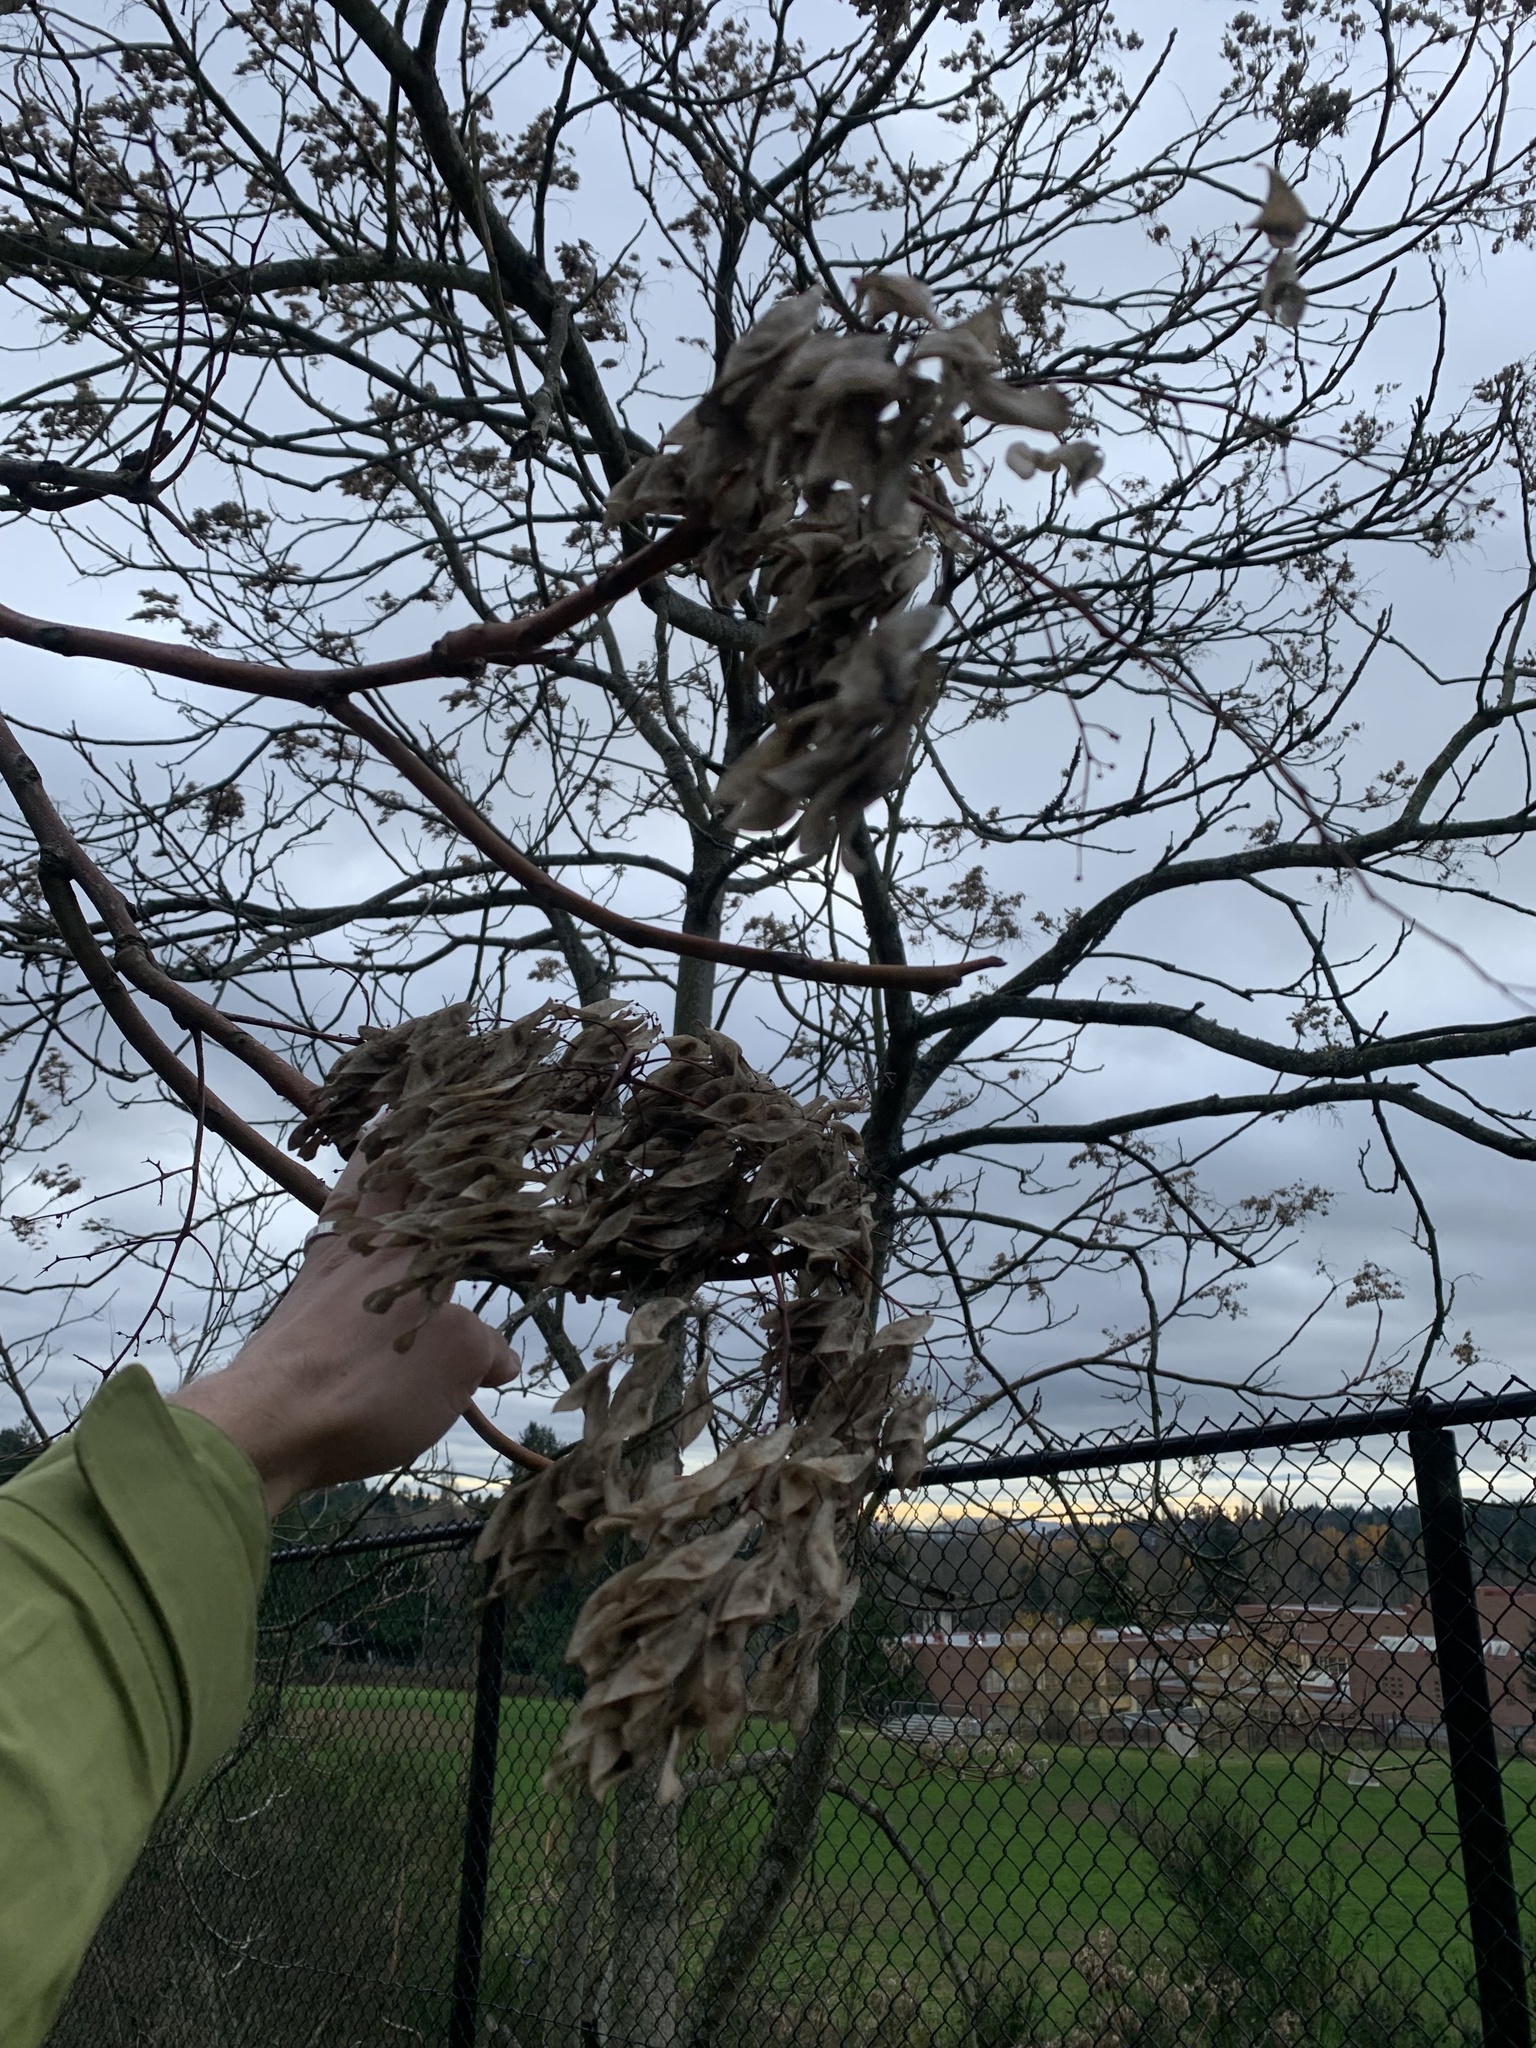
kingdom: Plantae
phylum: Tracheophyta
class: Magnoliopsida
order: Sapindales
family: Simaroubaceae
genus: Ailanthus
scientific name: Ailanthus altissima
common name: Tree-of-heaven
